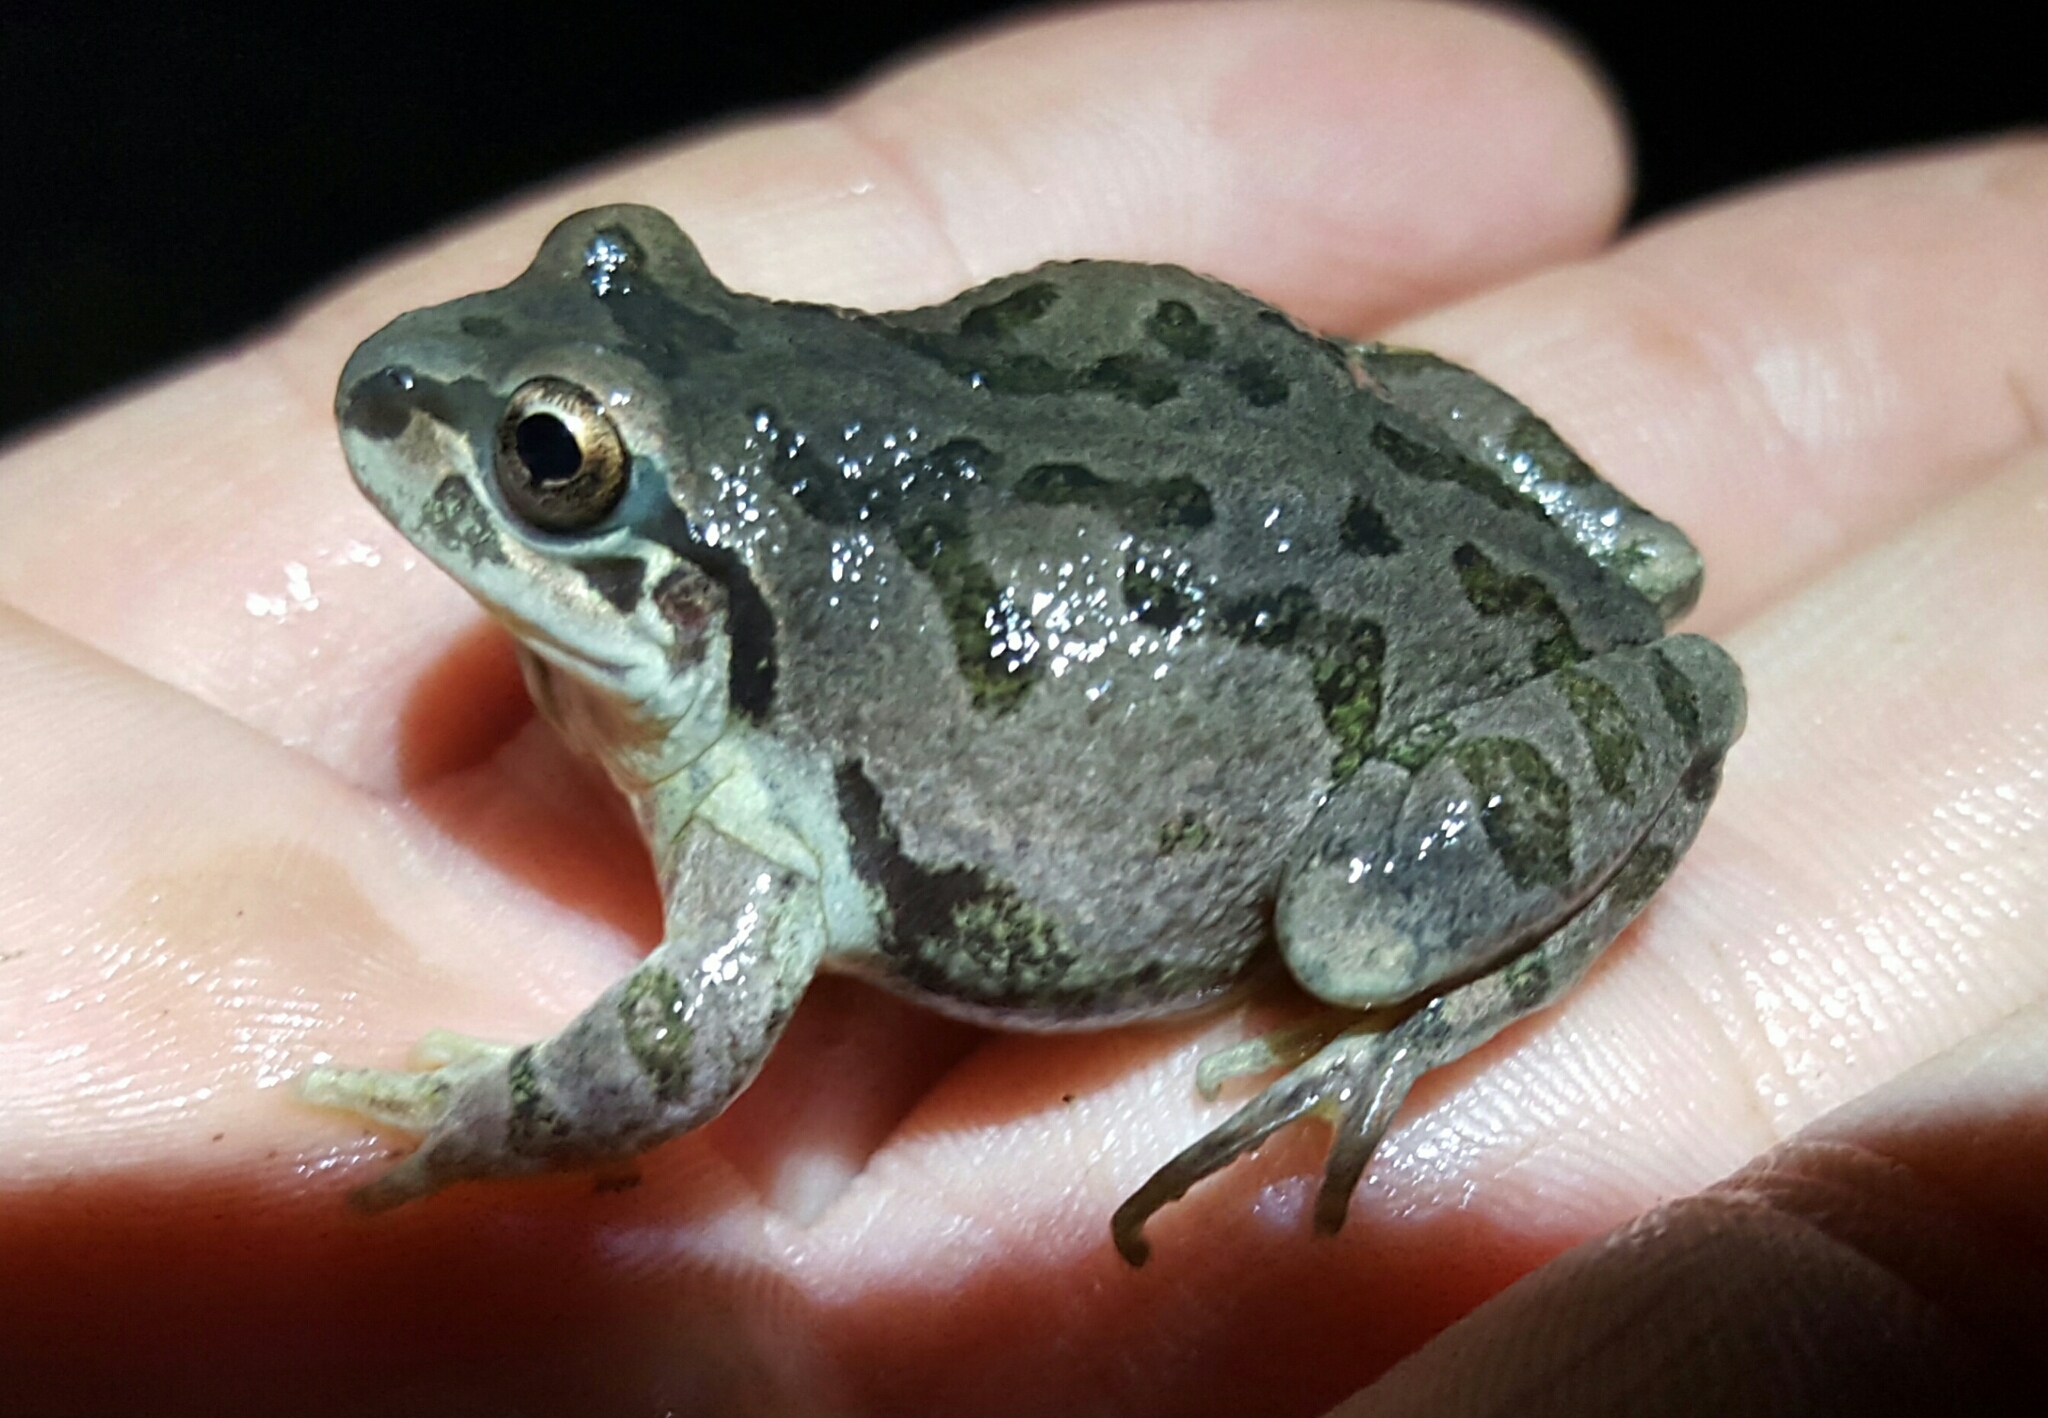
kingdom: Animalia
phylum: Chordata
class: Amphibia
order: Anura
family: Hylidae
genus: Pseudacris
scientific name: Pseudacris streckeri
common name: Strecker's chorus frog
